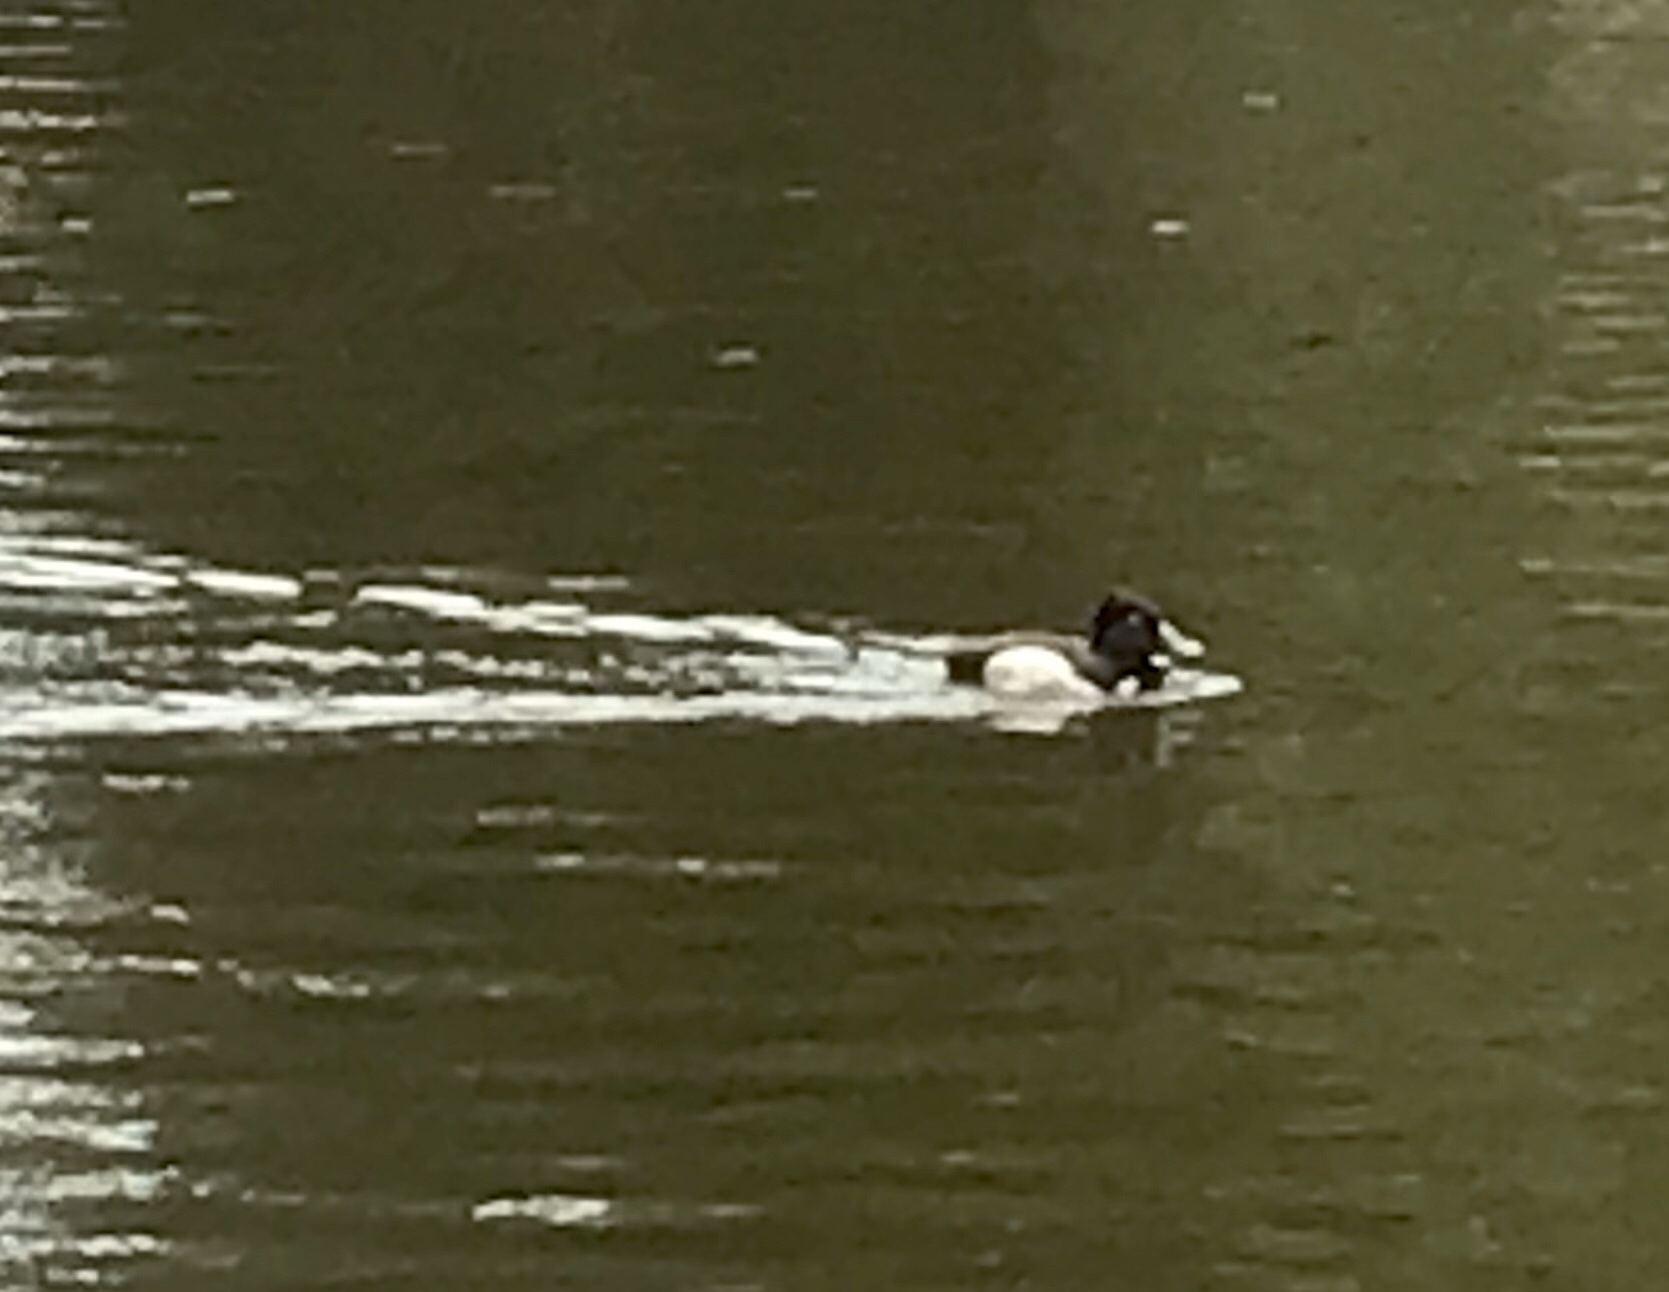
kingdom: Animalia
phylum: Chordata
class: Aves
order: Anseriformes
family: Anatidae
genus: Aythya
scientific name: Aythya collaris
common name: Ring-necked duck
